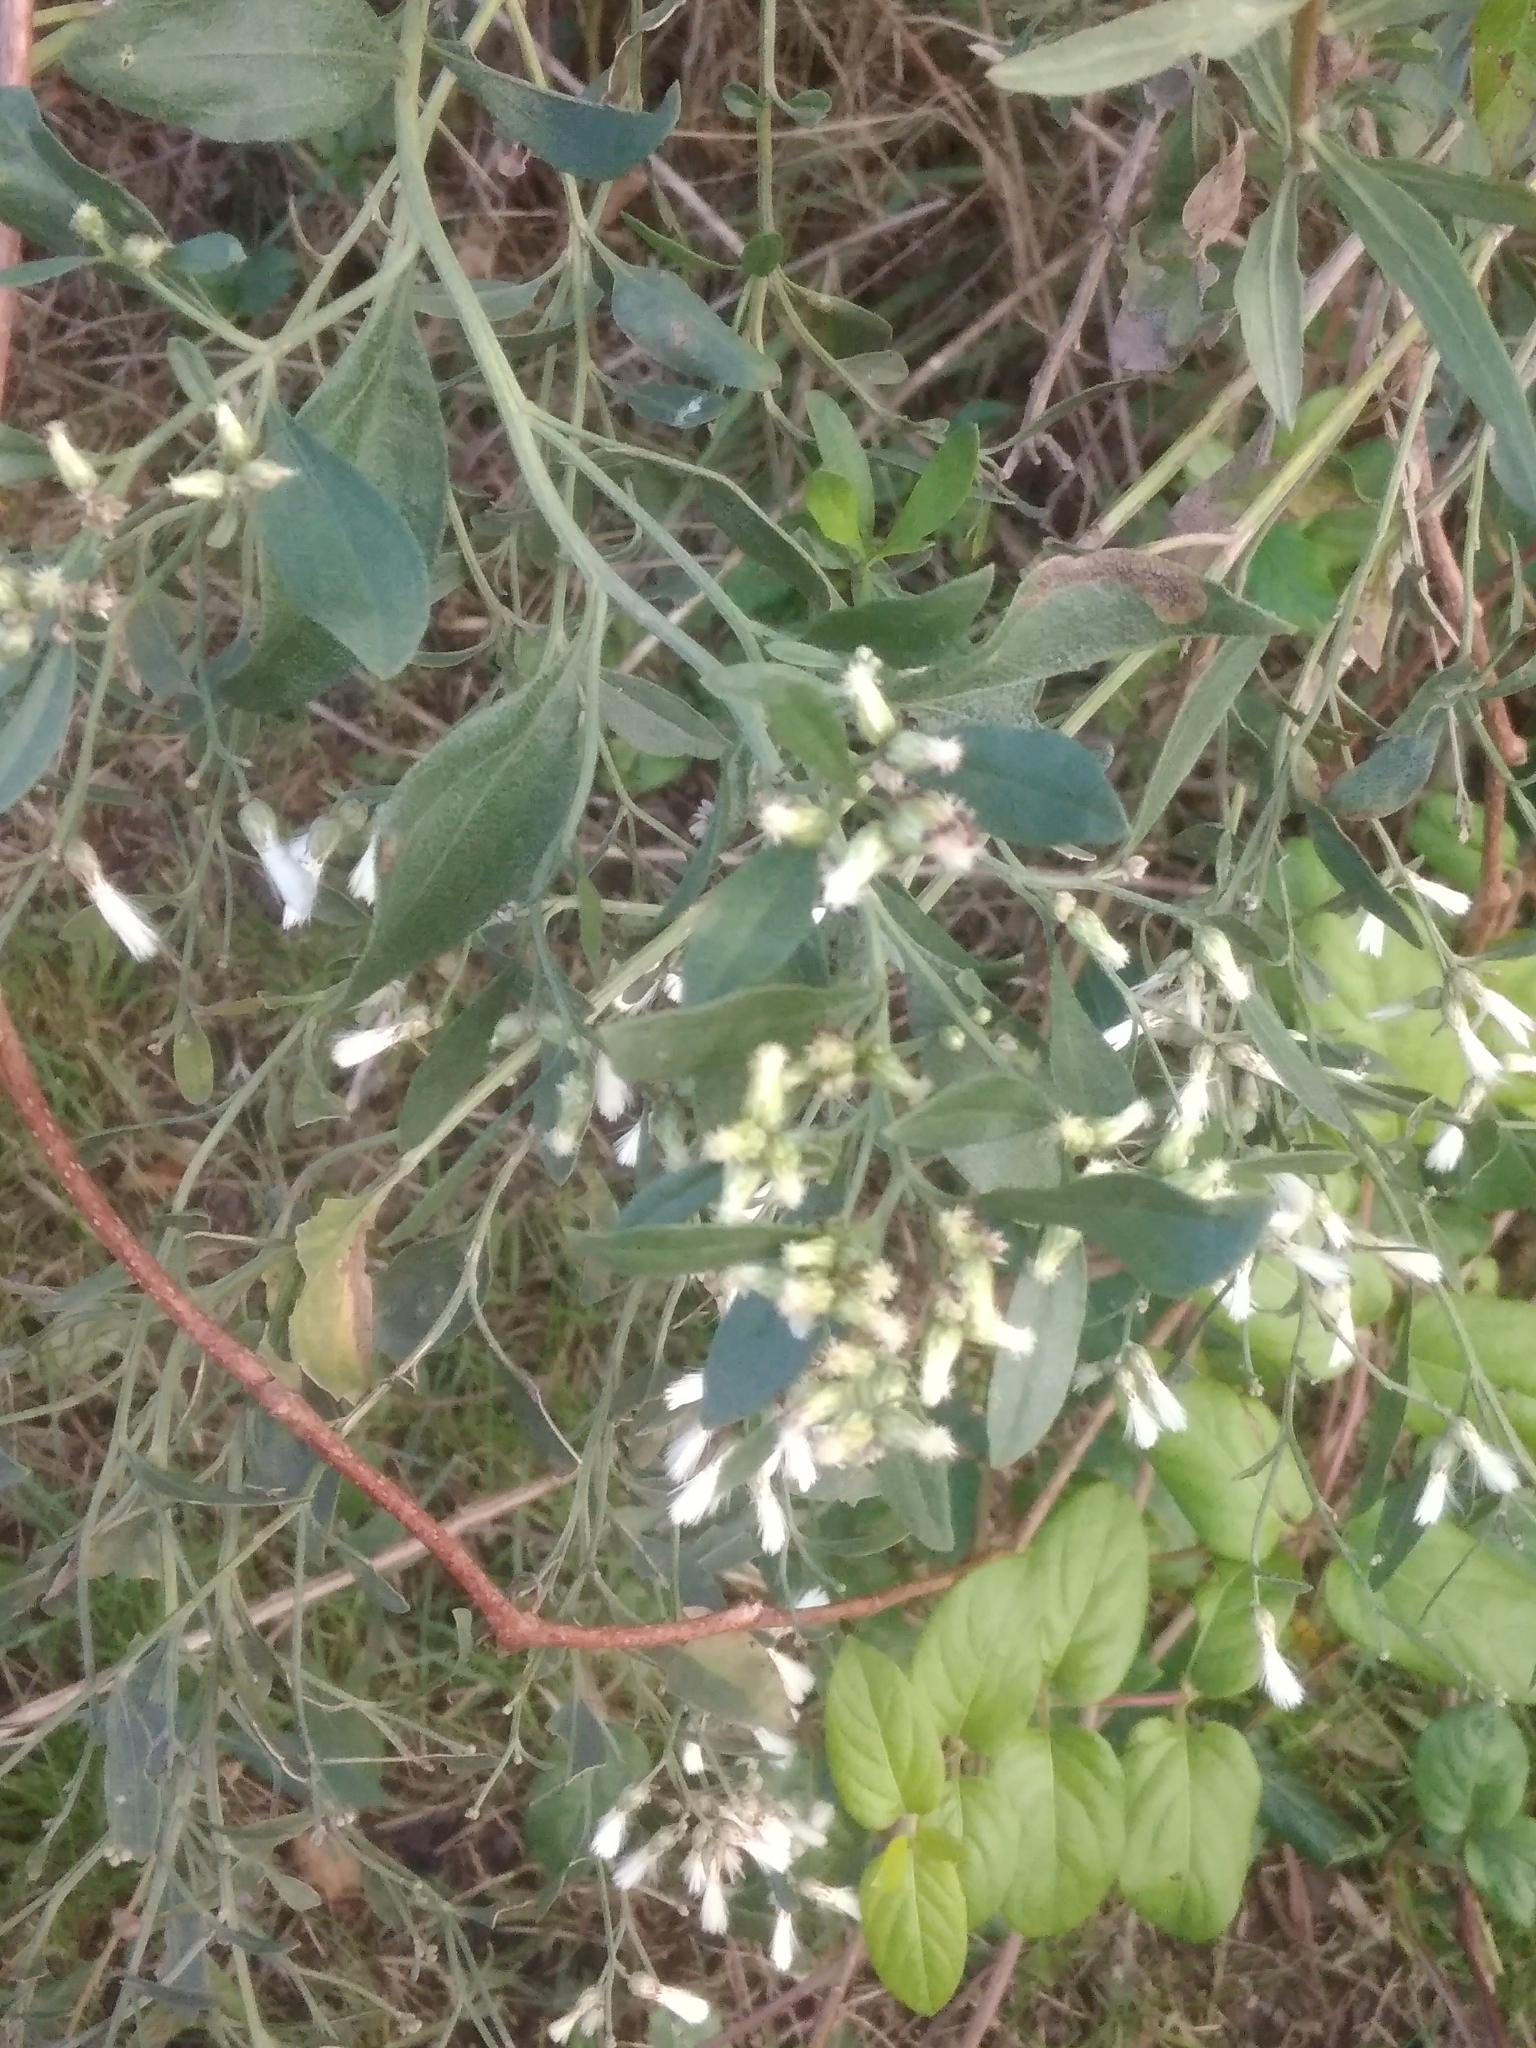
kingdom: Plantae
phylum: Tracheophyta
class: Magnoliopsida
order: Asterales
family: Asteraceae
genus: Baccharis
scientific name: Baccharis halimifolia
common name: Eastern baccharis
